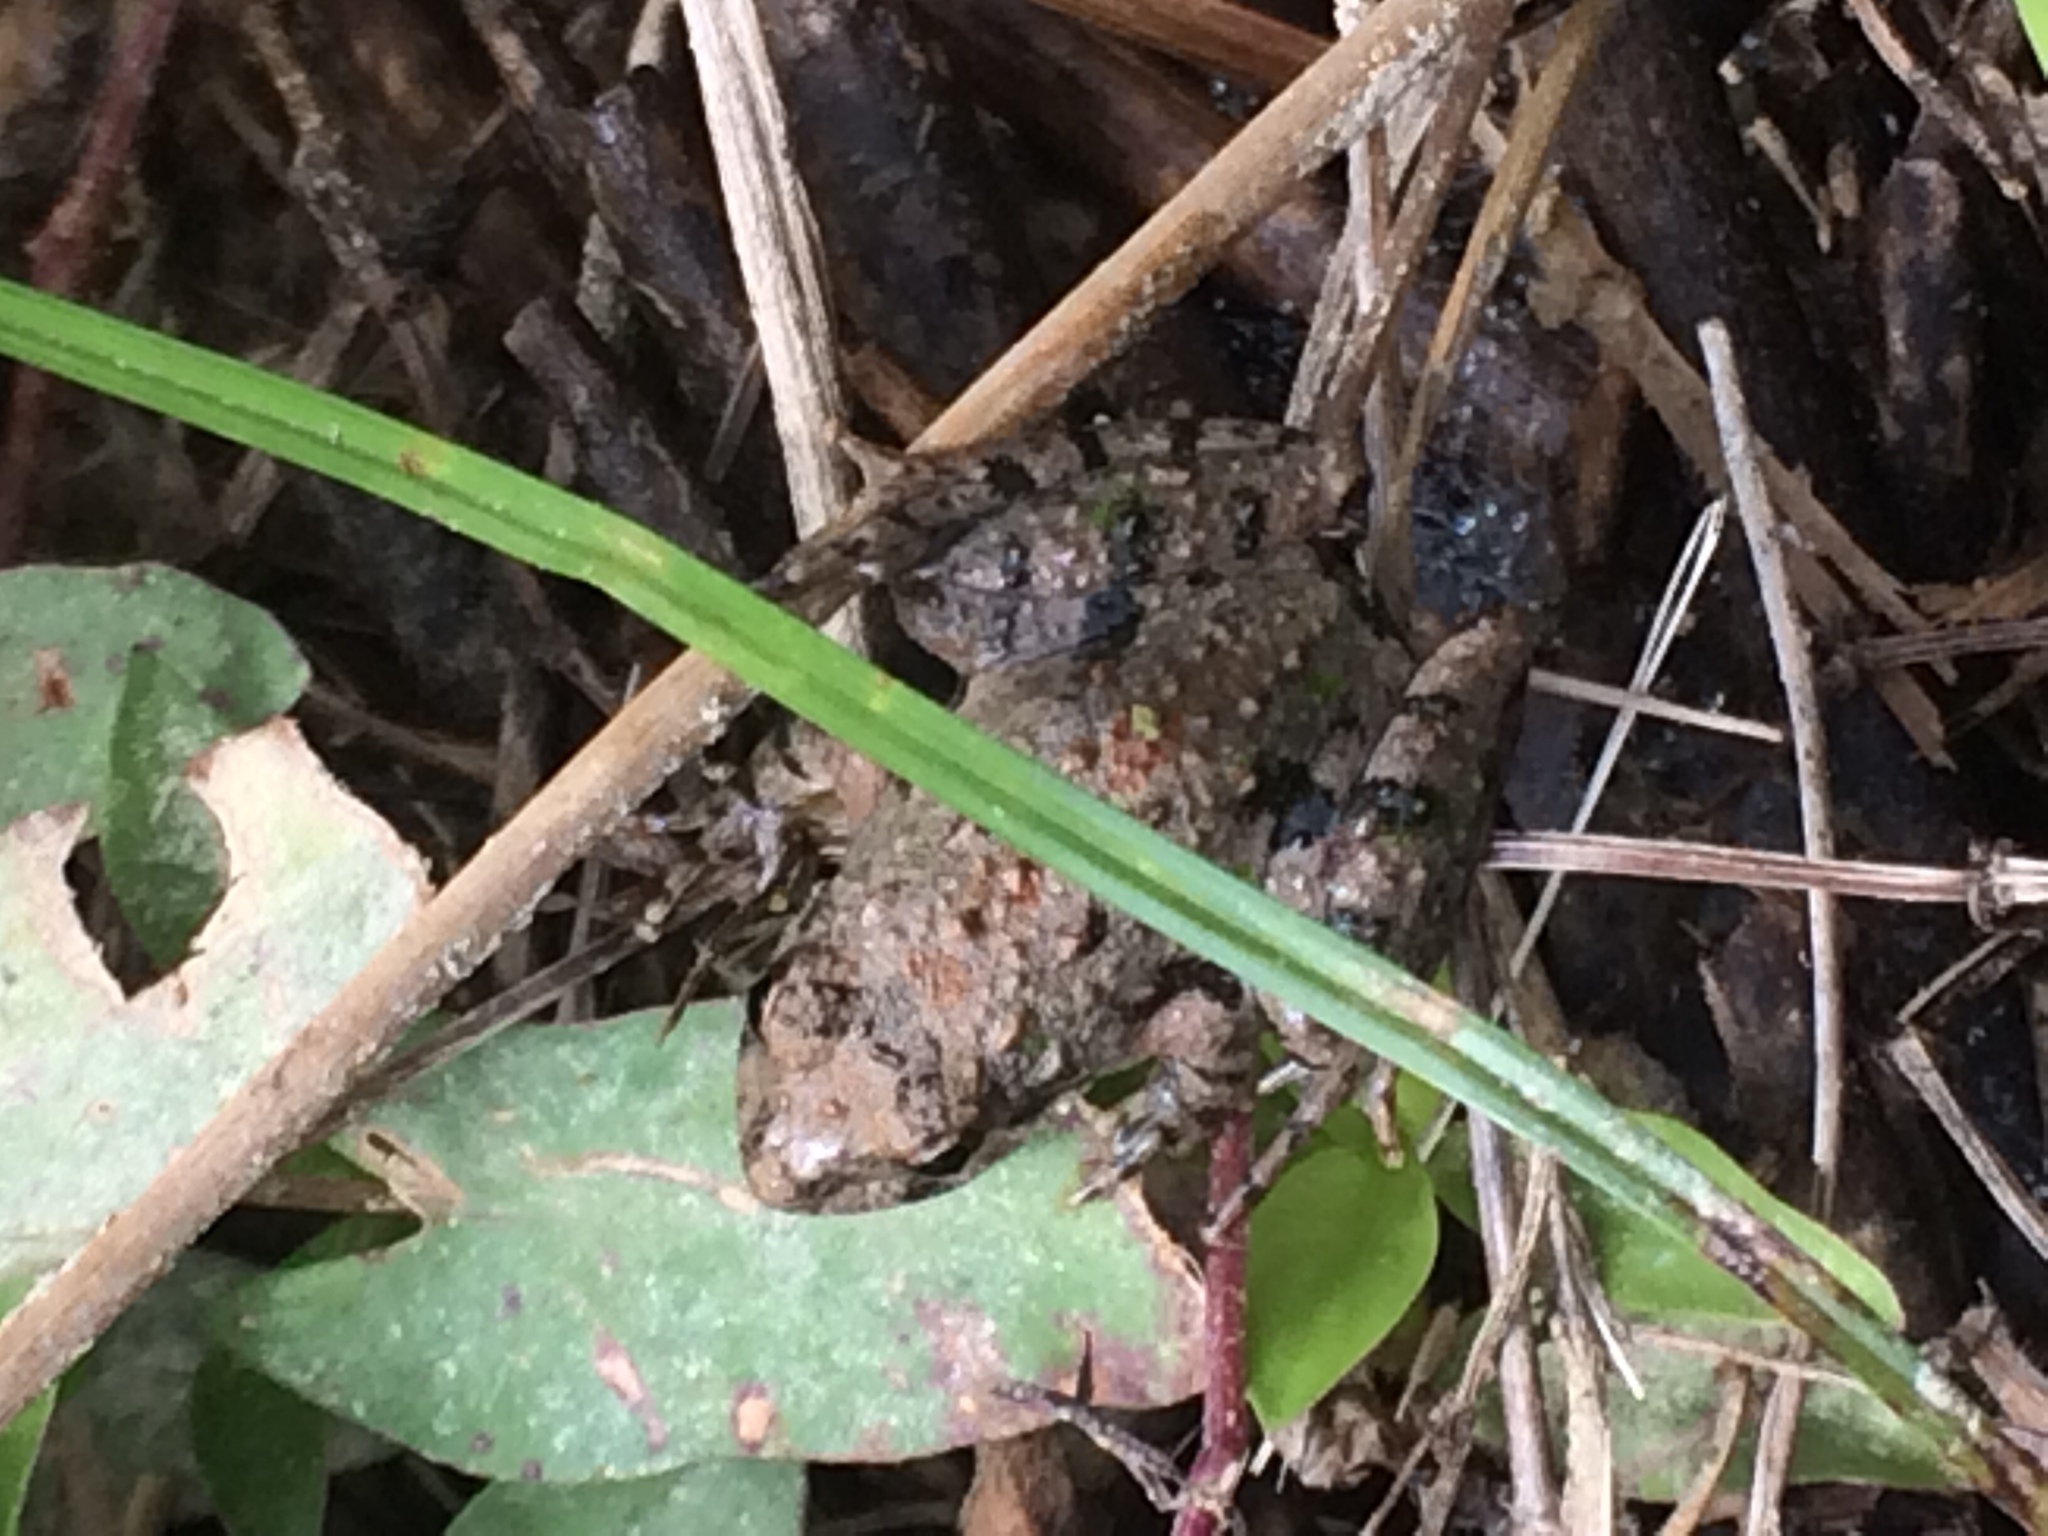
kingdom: Animalia
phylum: Chordata
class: Amphibia
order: Anura
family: Hylidae
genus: Acris
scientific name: Acris crepitans
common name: Northern cricket frog
